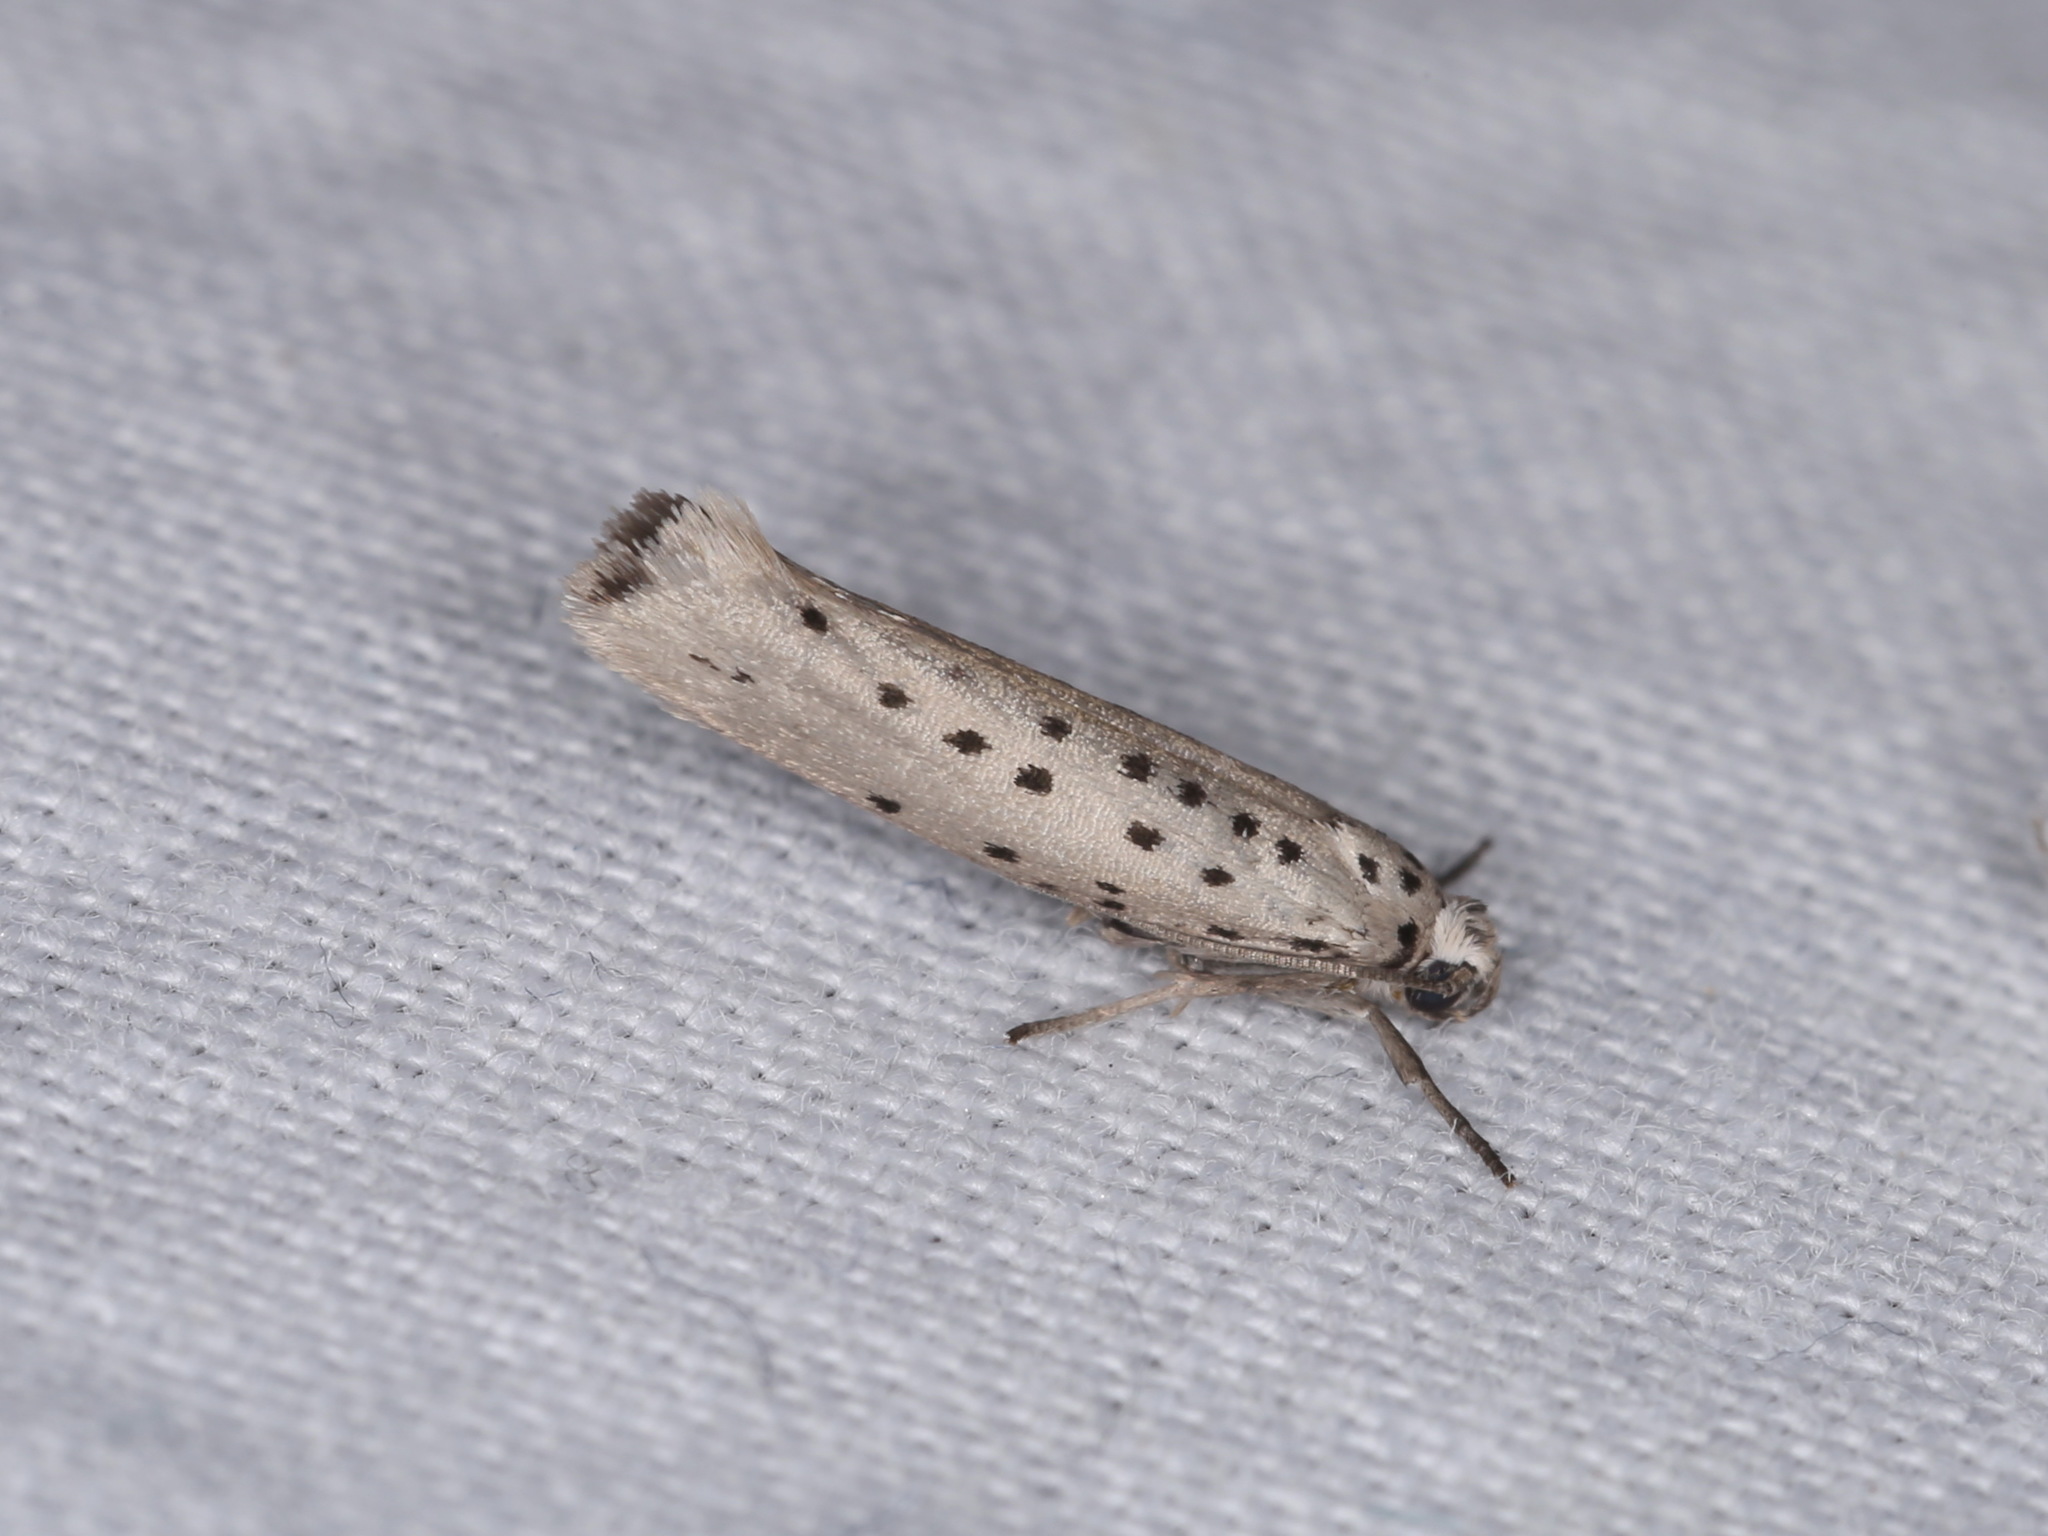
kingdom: Animalia
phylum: Arthropoda
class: Insecta
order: Lepidoptera
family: Yponomeutidae
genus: Yponomeuta
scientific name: Yponomeuta vigintipunctata
